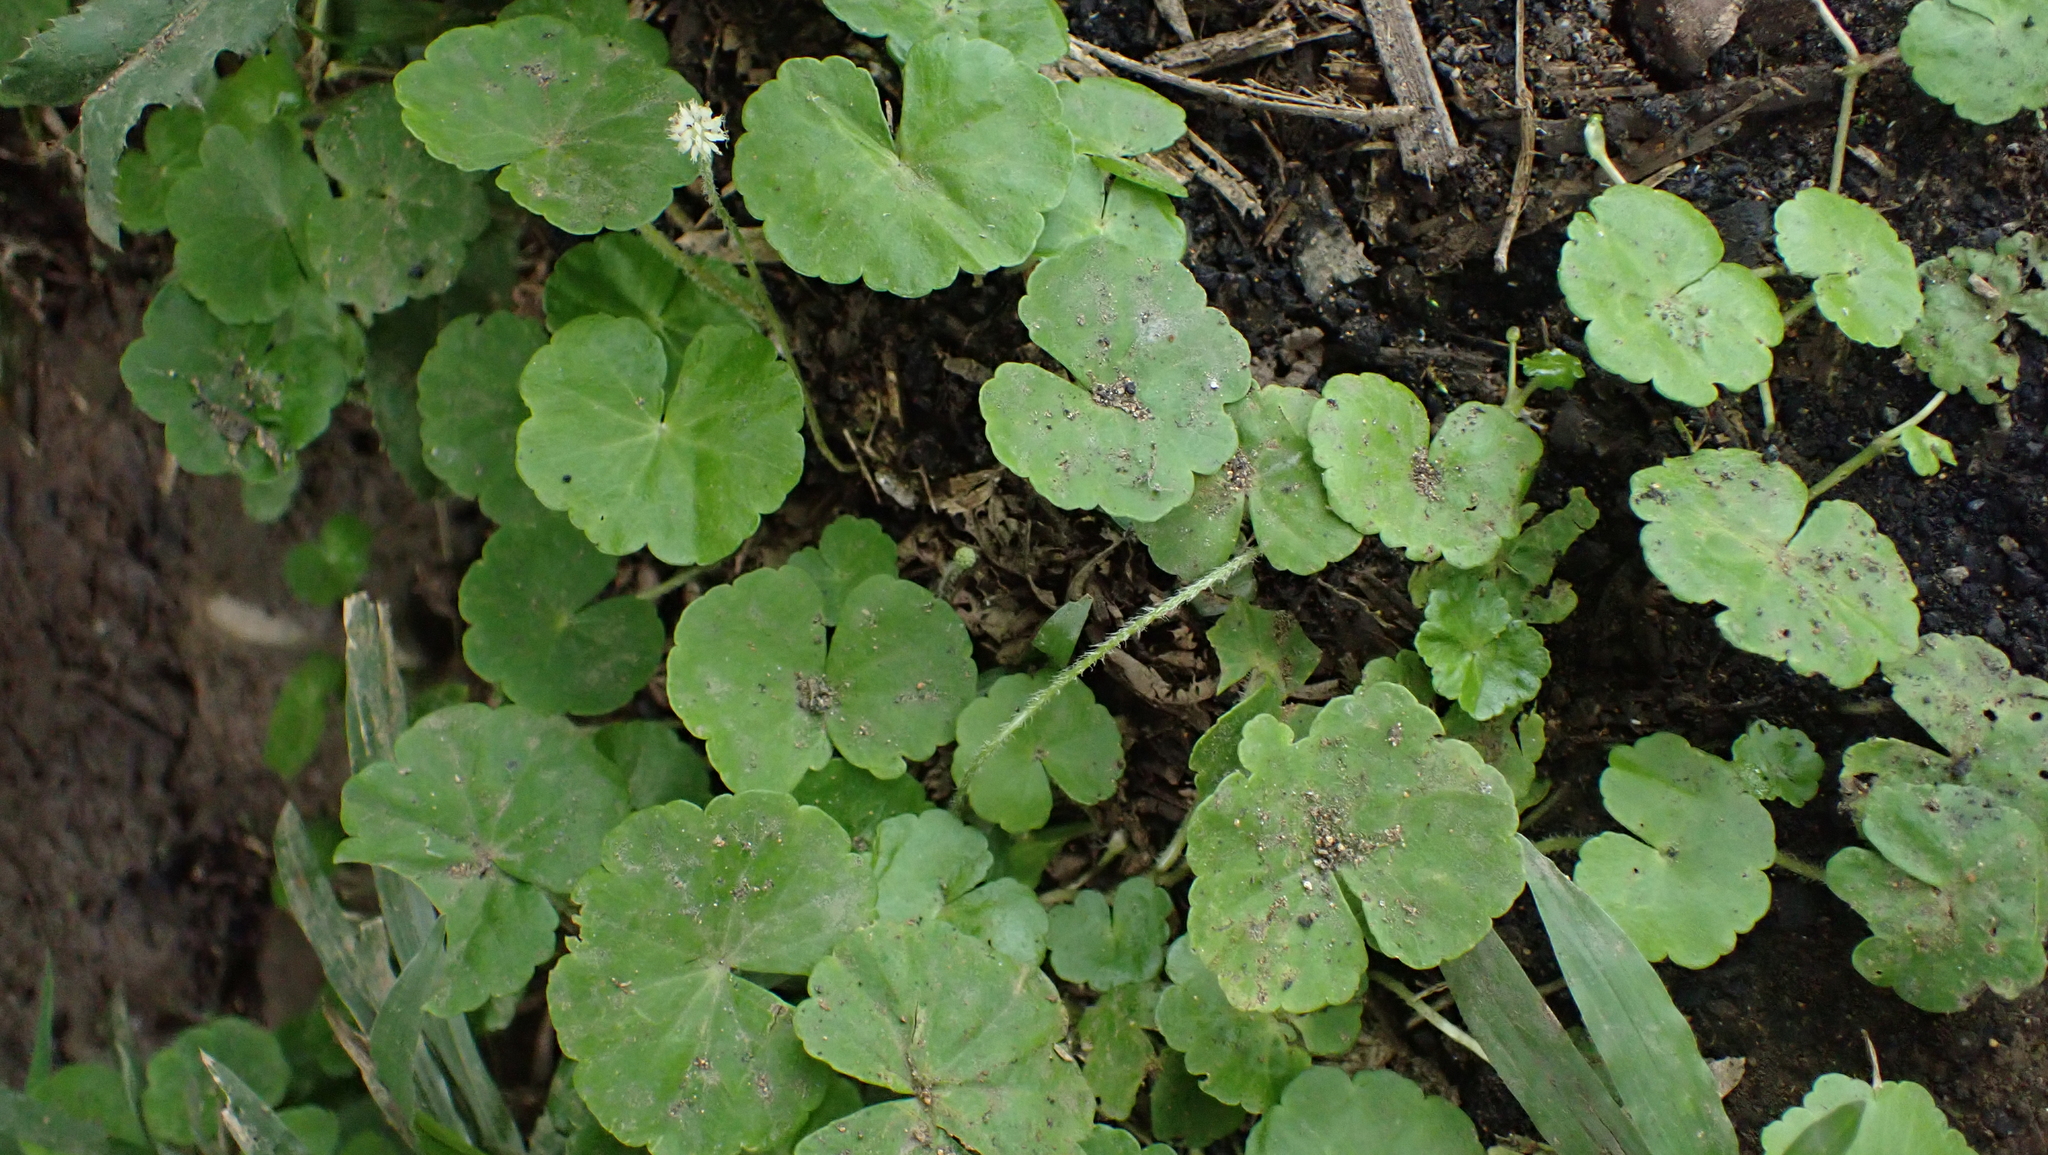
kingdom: Plantae
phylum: Tracheophyta
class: Magnoliopsida
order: Apiales
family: Araliaceae
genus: Hydrocotyle
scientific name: Hydrocotyle leucocephala
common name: Brazilian pennywort
